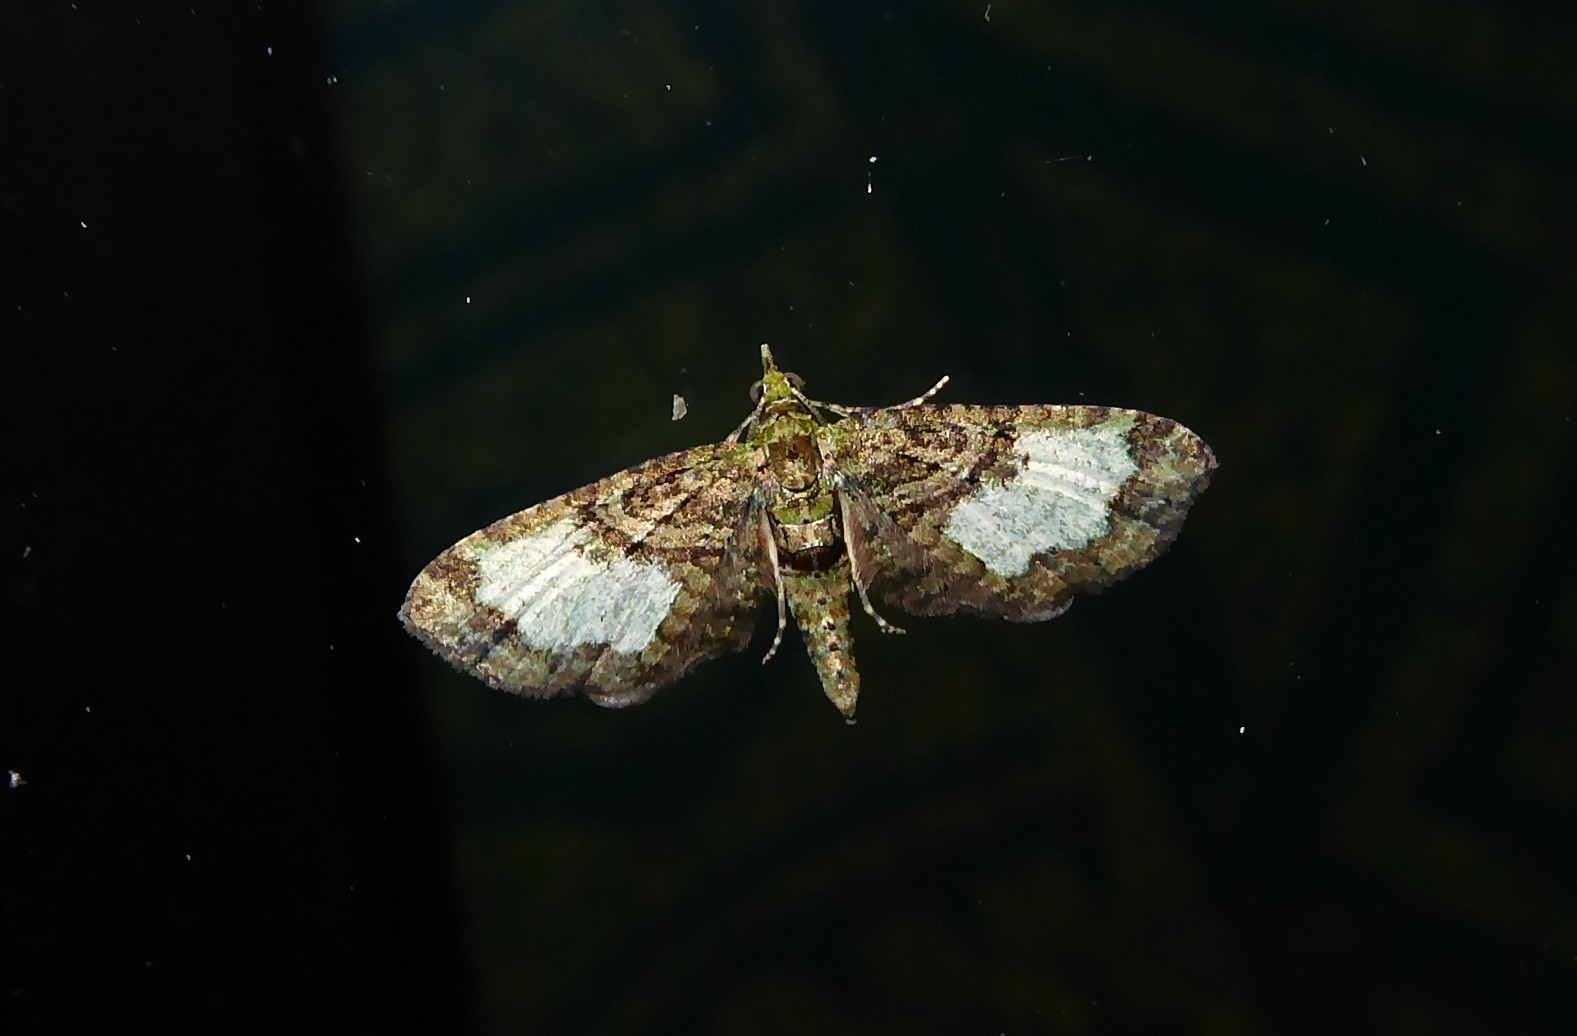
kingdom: Animalia
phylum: Arthropoda
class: Insecta
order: Lepidoptera
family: Geometridae
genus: Idaea
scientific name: Idaea mutanda
